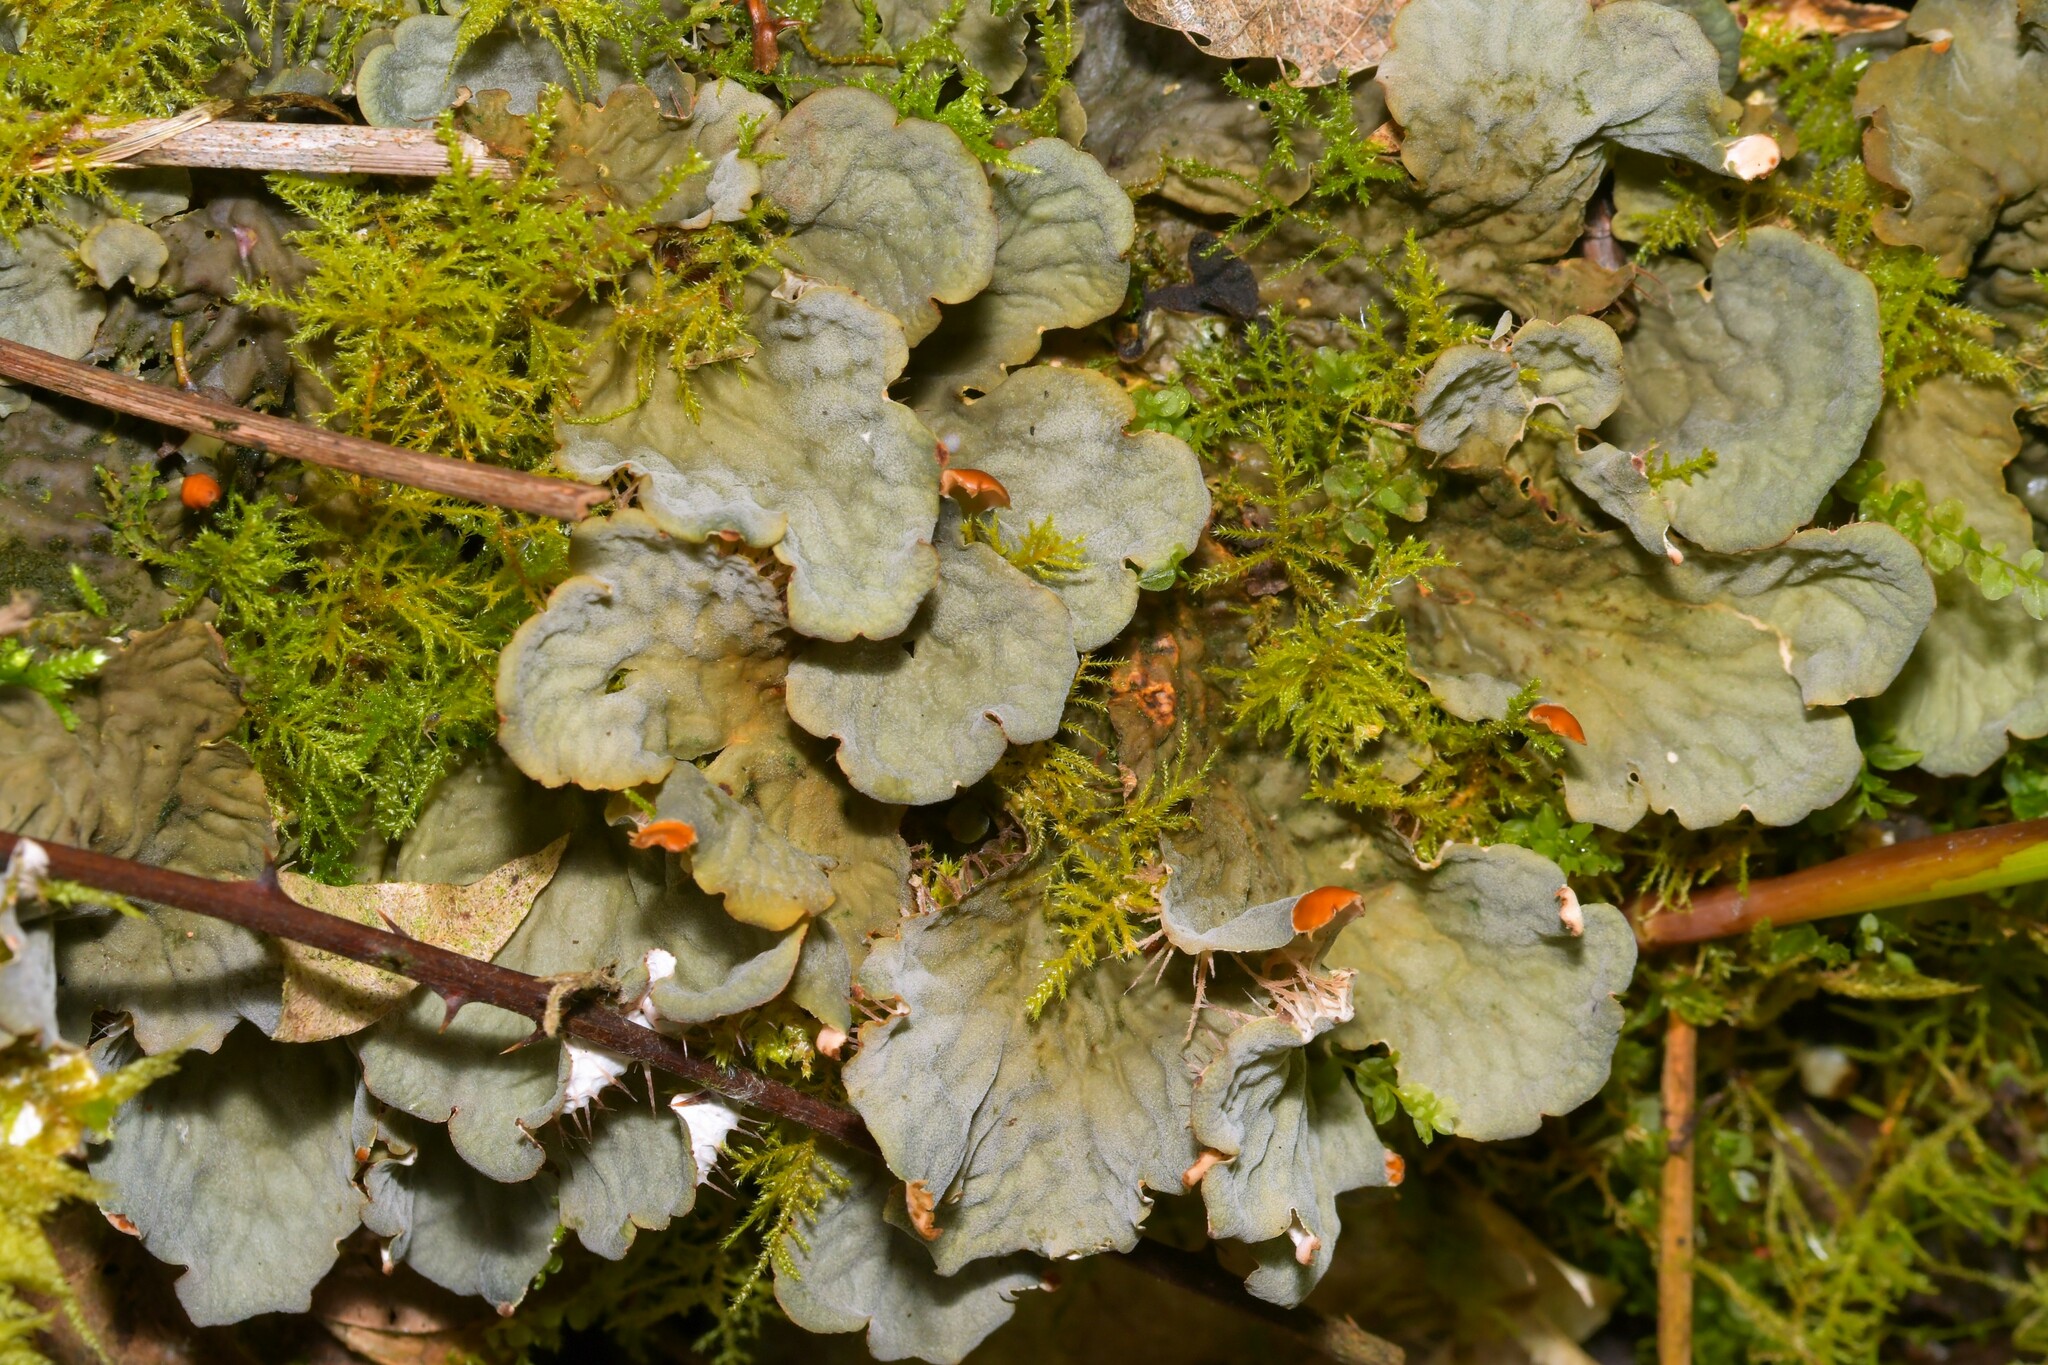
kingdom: Fungi
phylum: Ascomycota
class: Lecanoromycetes
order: Peltigerales
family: Peltigeraceae
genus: Peltigera
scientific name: Peltigera membranacea
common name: Membranous pelt lichen
